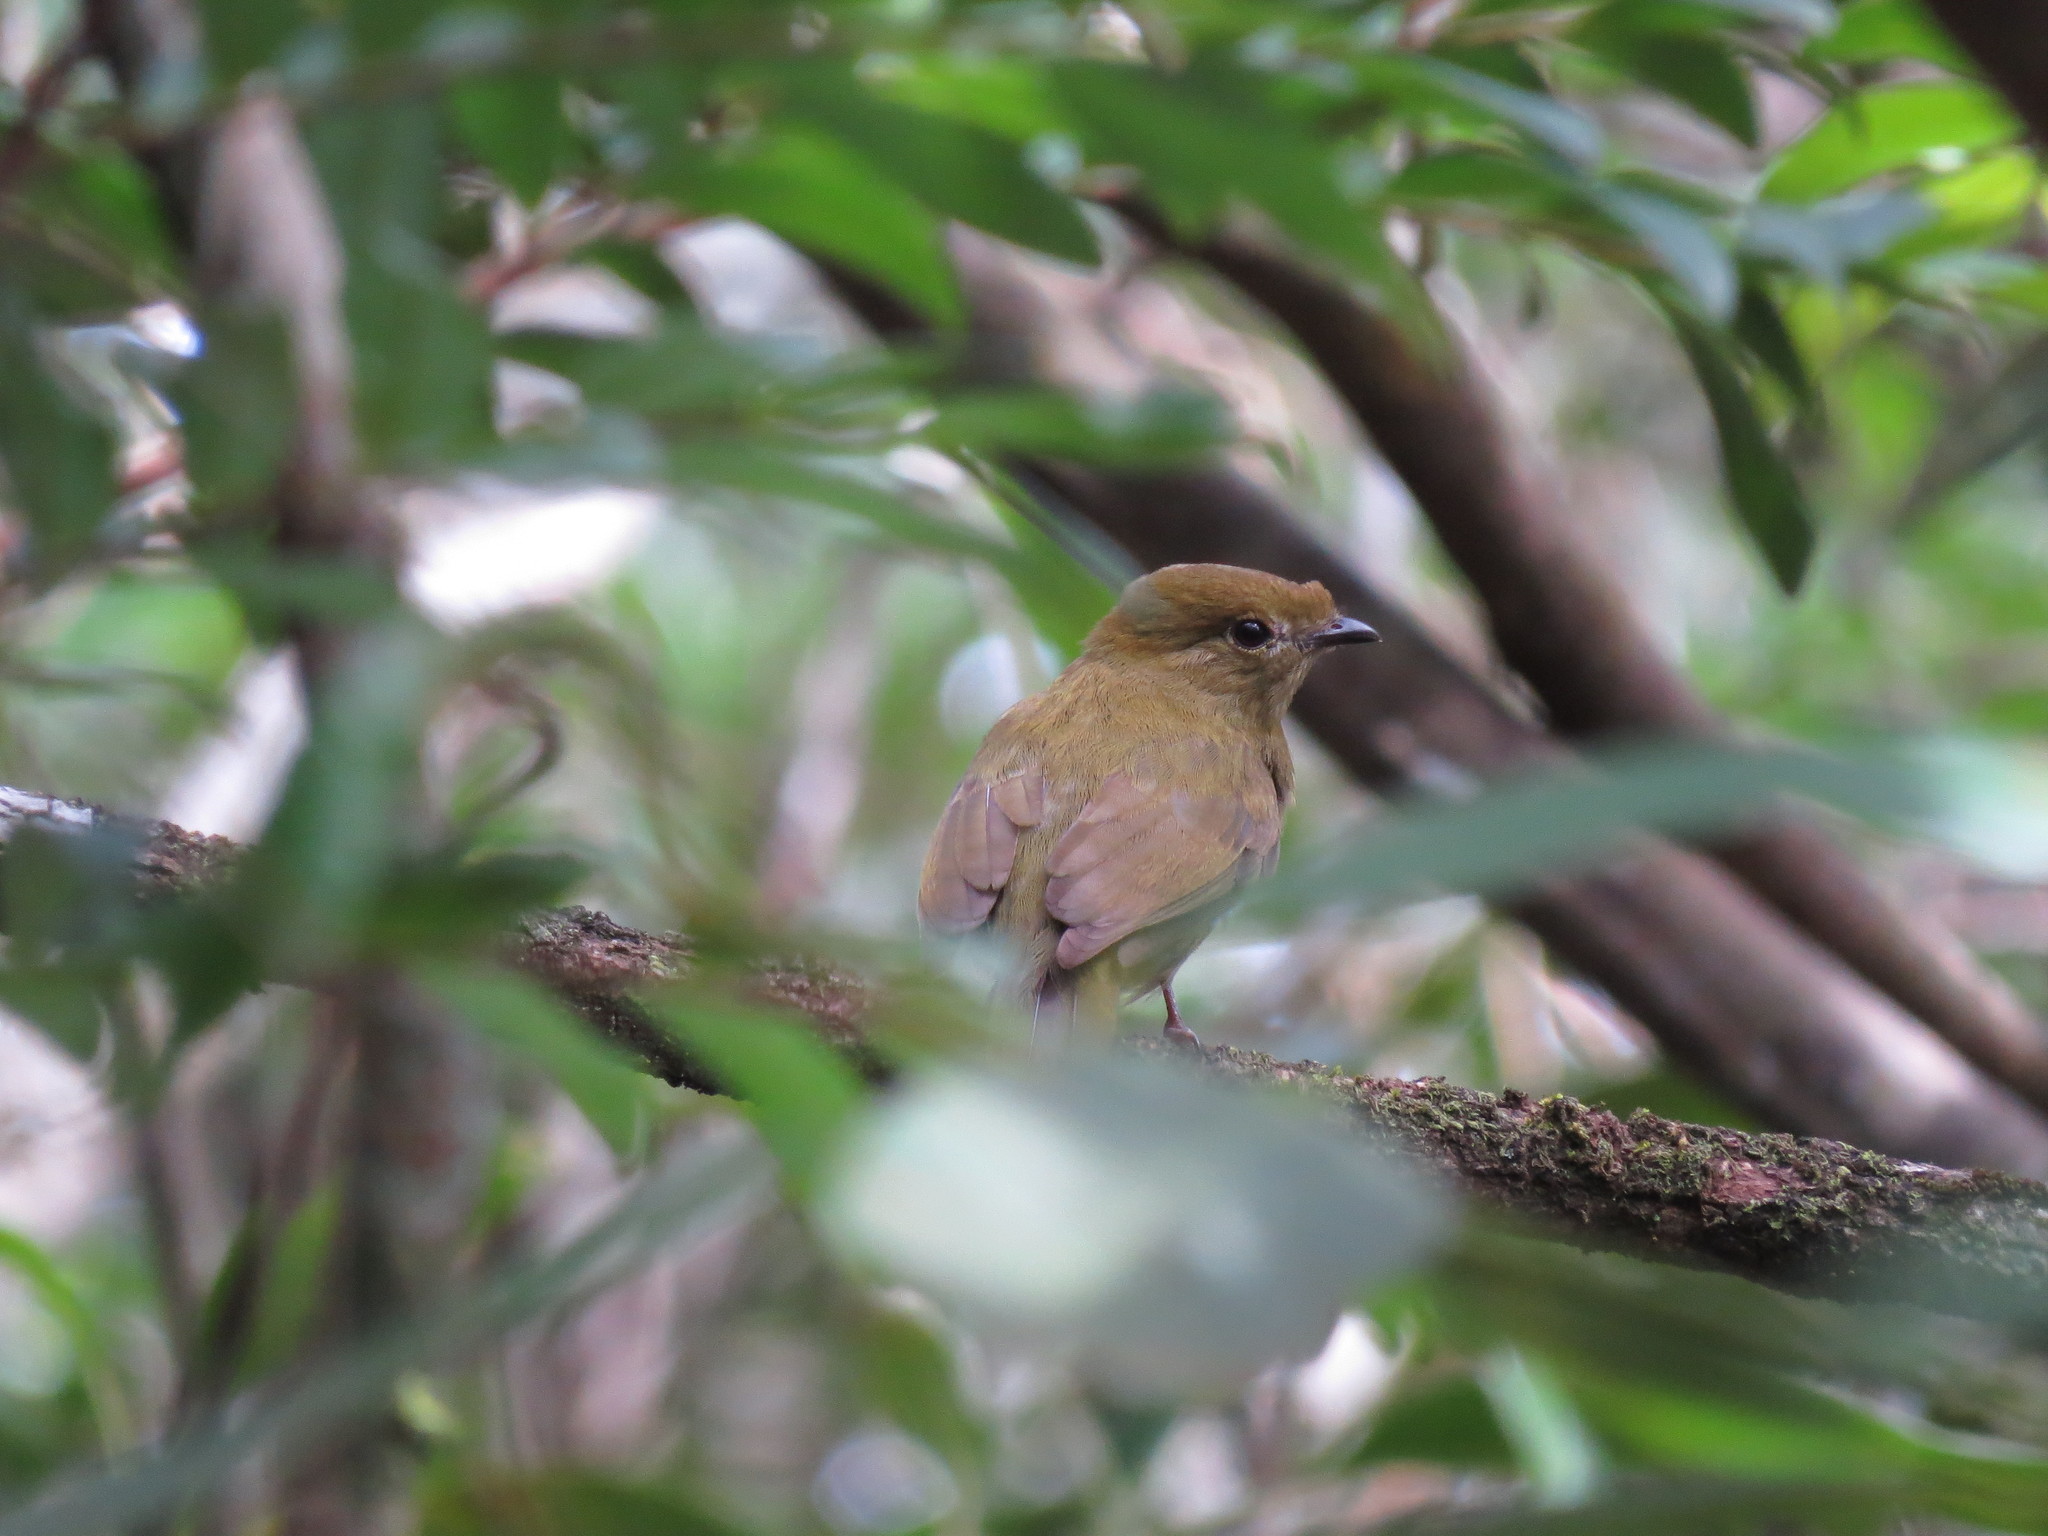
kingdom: Animalia
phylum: Chordata
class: Aves
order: Passeriformes
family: Pipridae
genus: Antilophia
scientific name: Antilophia galeata
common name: Helmeted manakin
